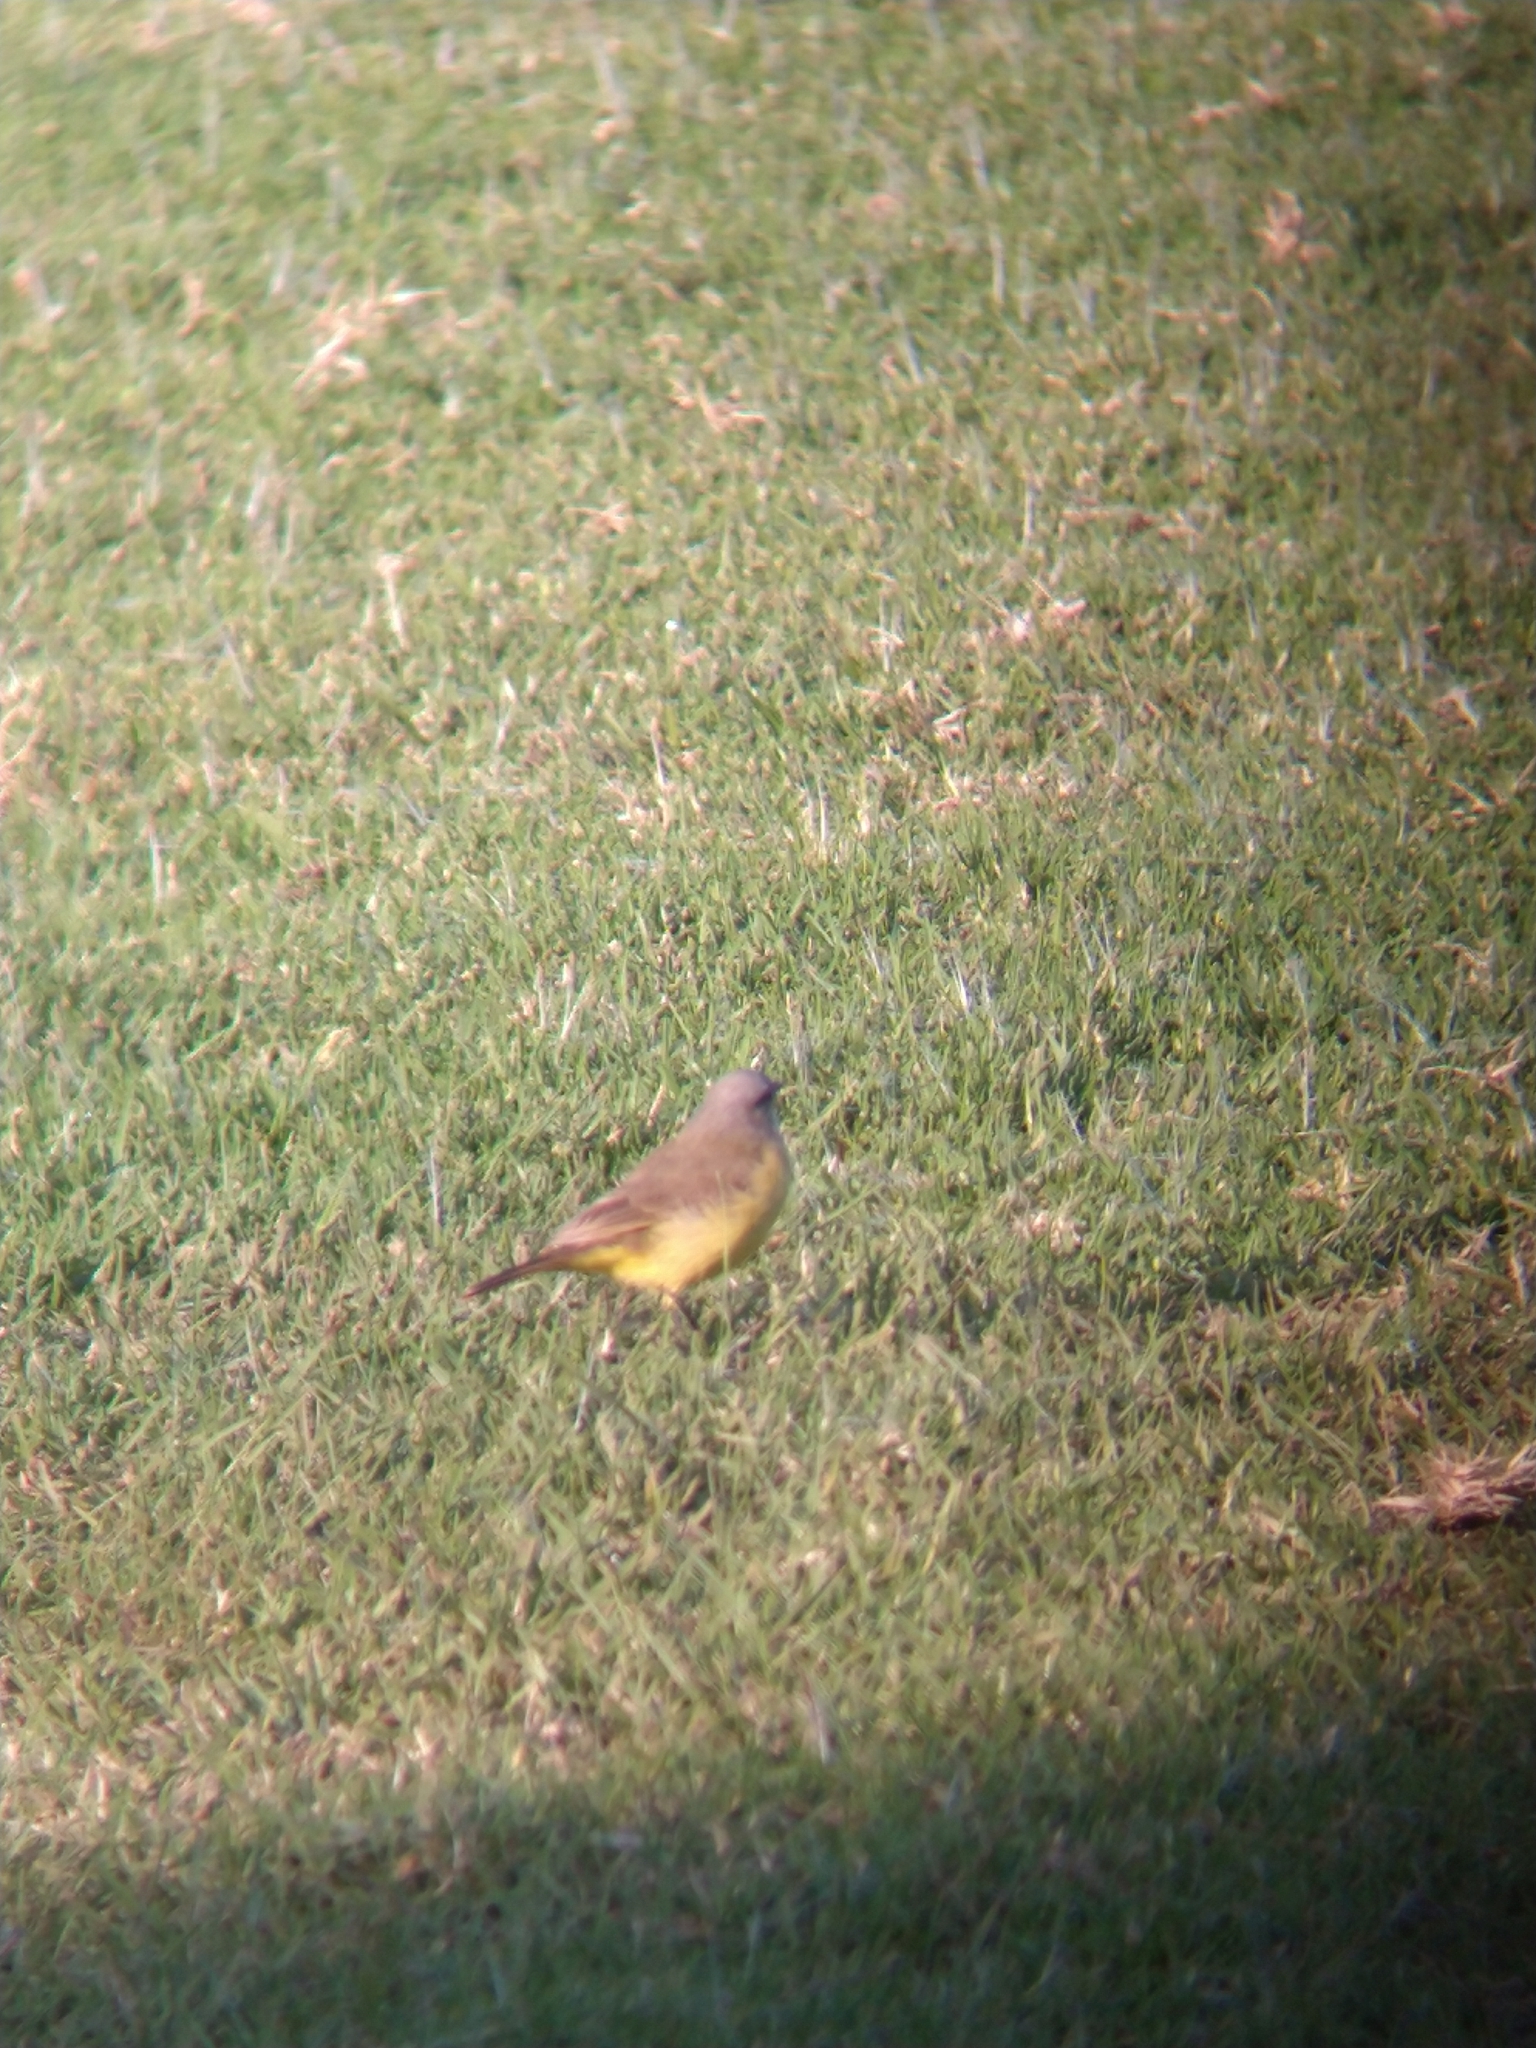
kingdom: Animalia
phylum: Chordata
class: Aves
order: Passeriformes
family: Tyrannidae
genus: Machetornis
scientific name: Machetornis rixosa
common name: Cattle tyrant
